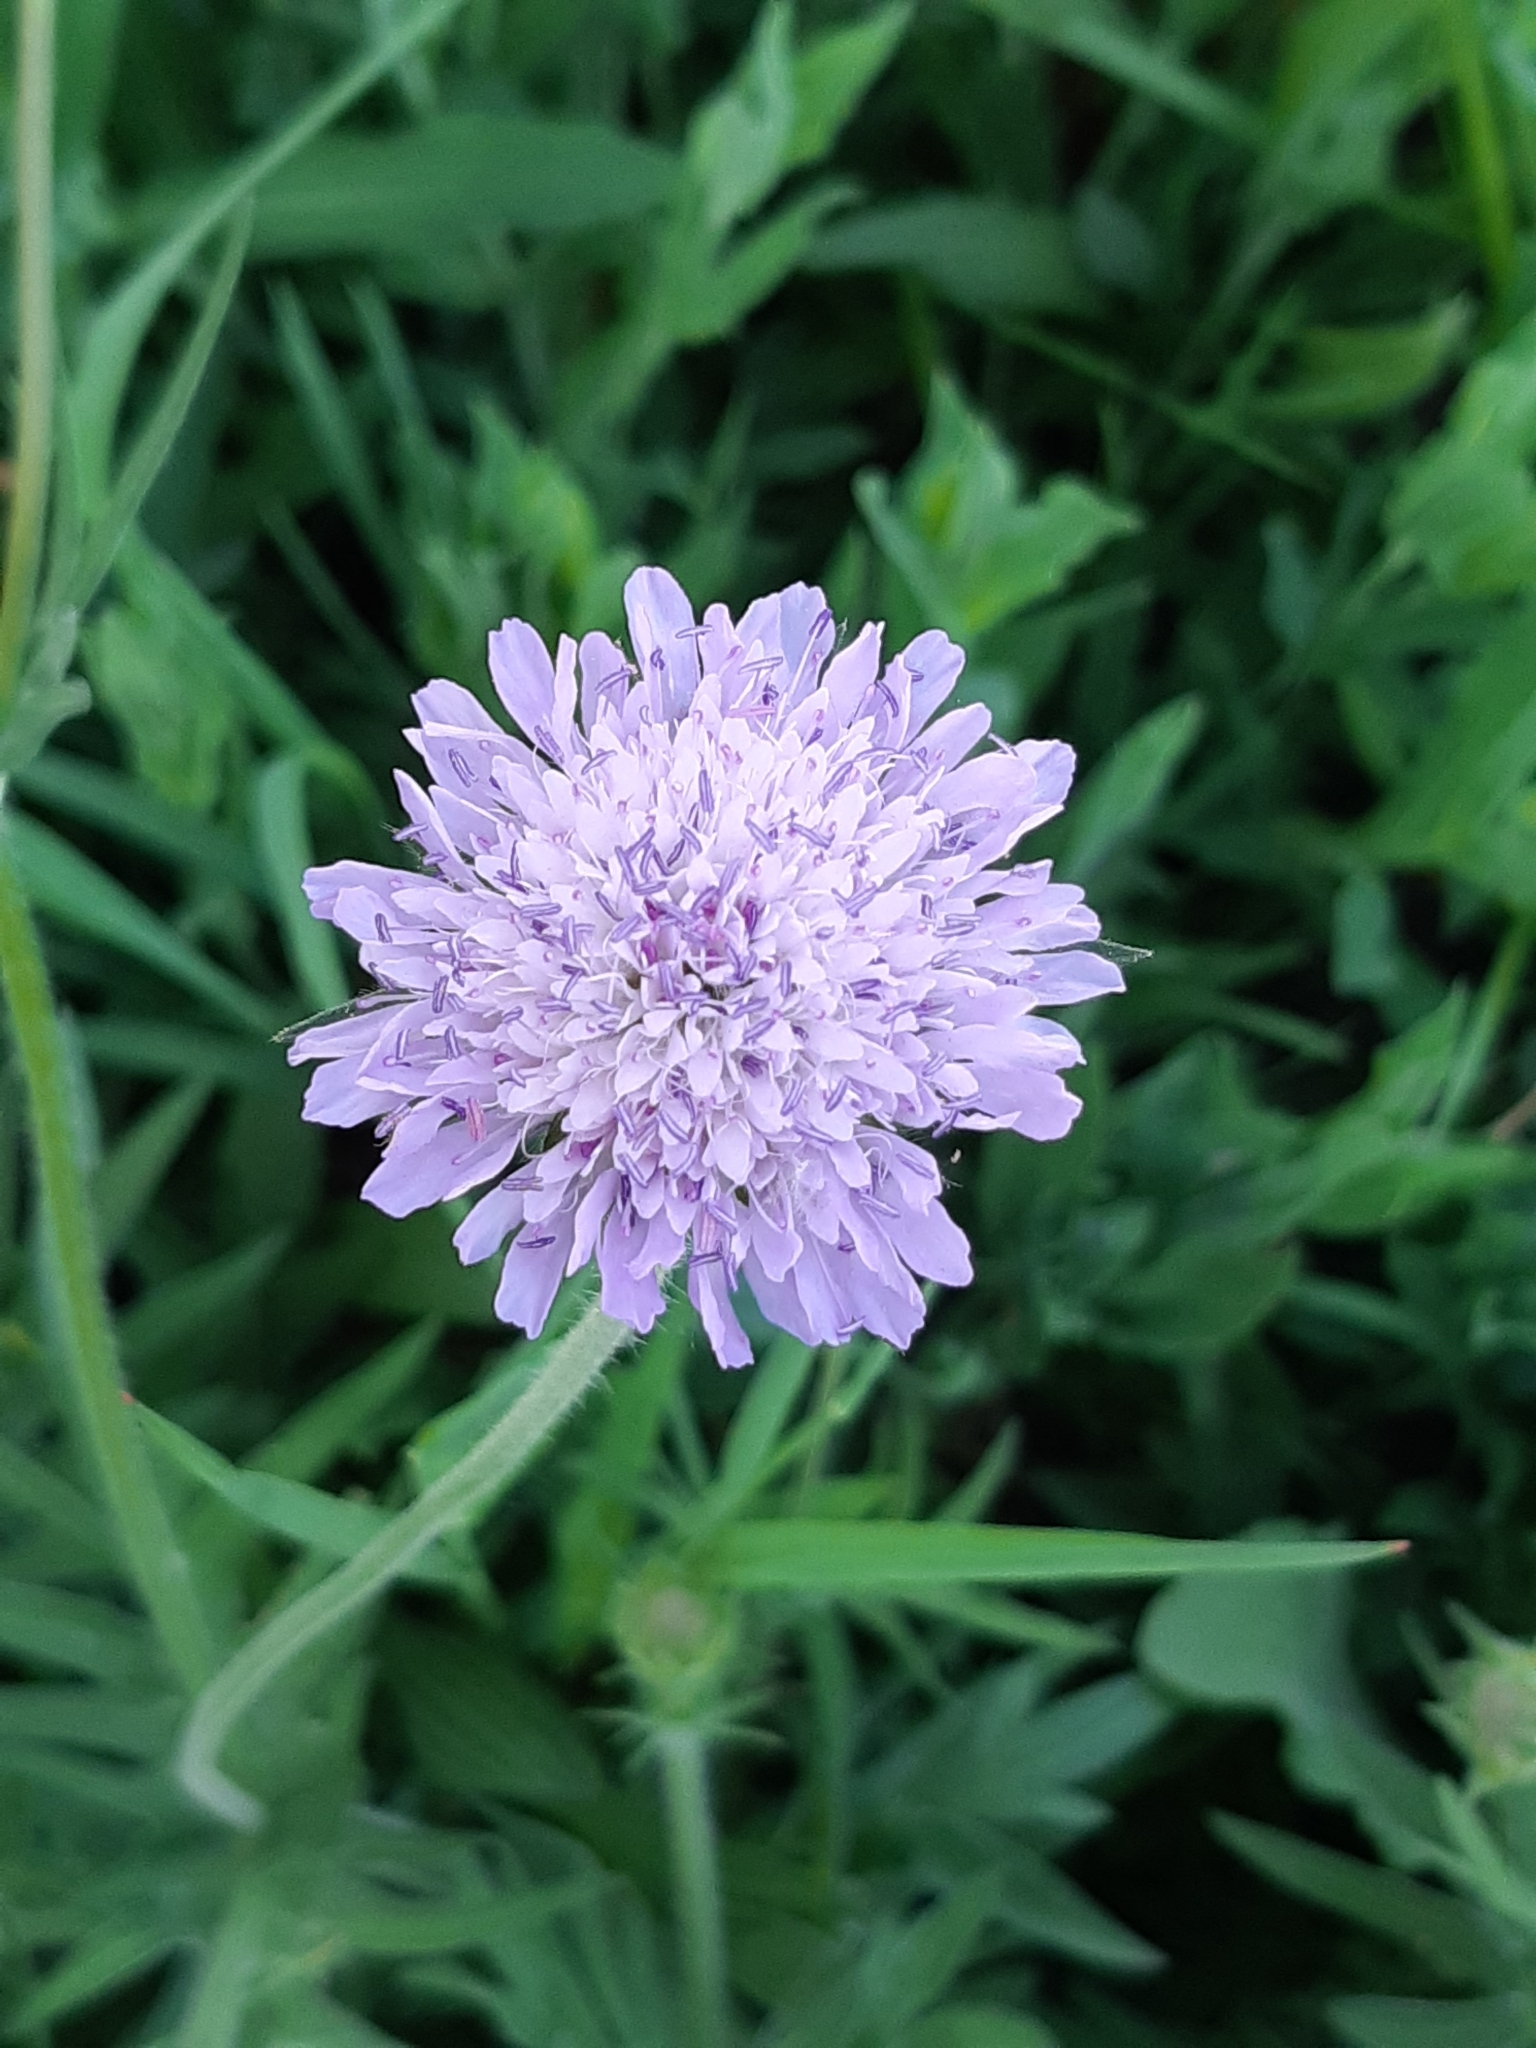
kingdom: Plantae
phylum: Tracheophyta
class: Magnoliopsida
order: Dipsacales
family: Caprifoliaceae
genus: Knautia
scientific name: Knautia arvensis
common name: Field scabiosa
